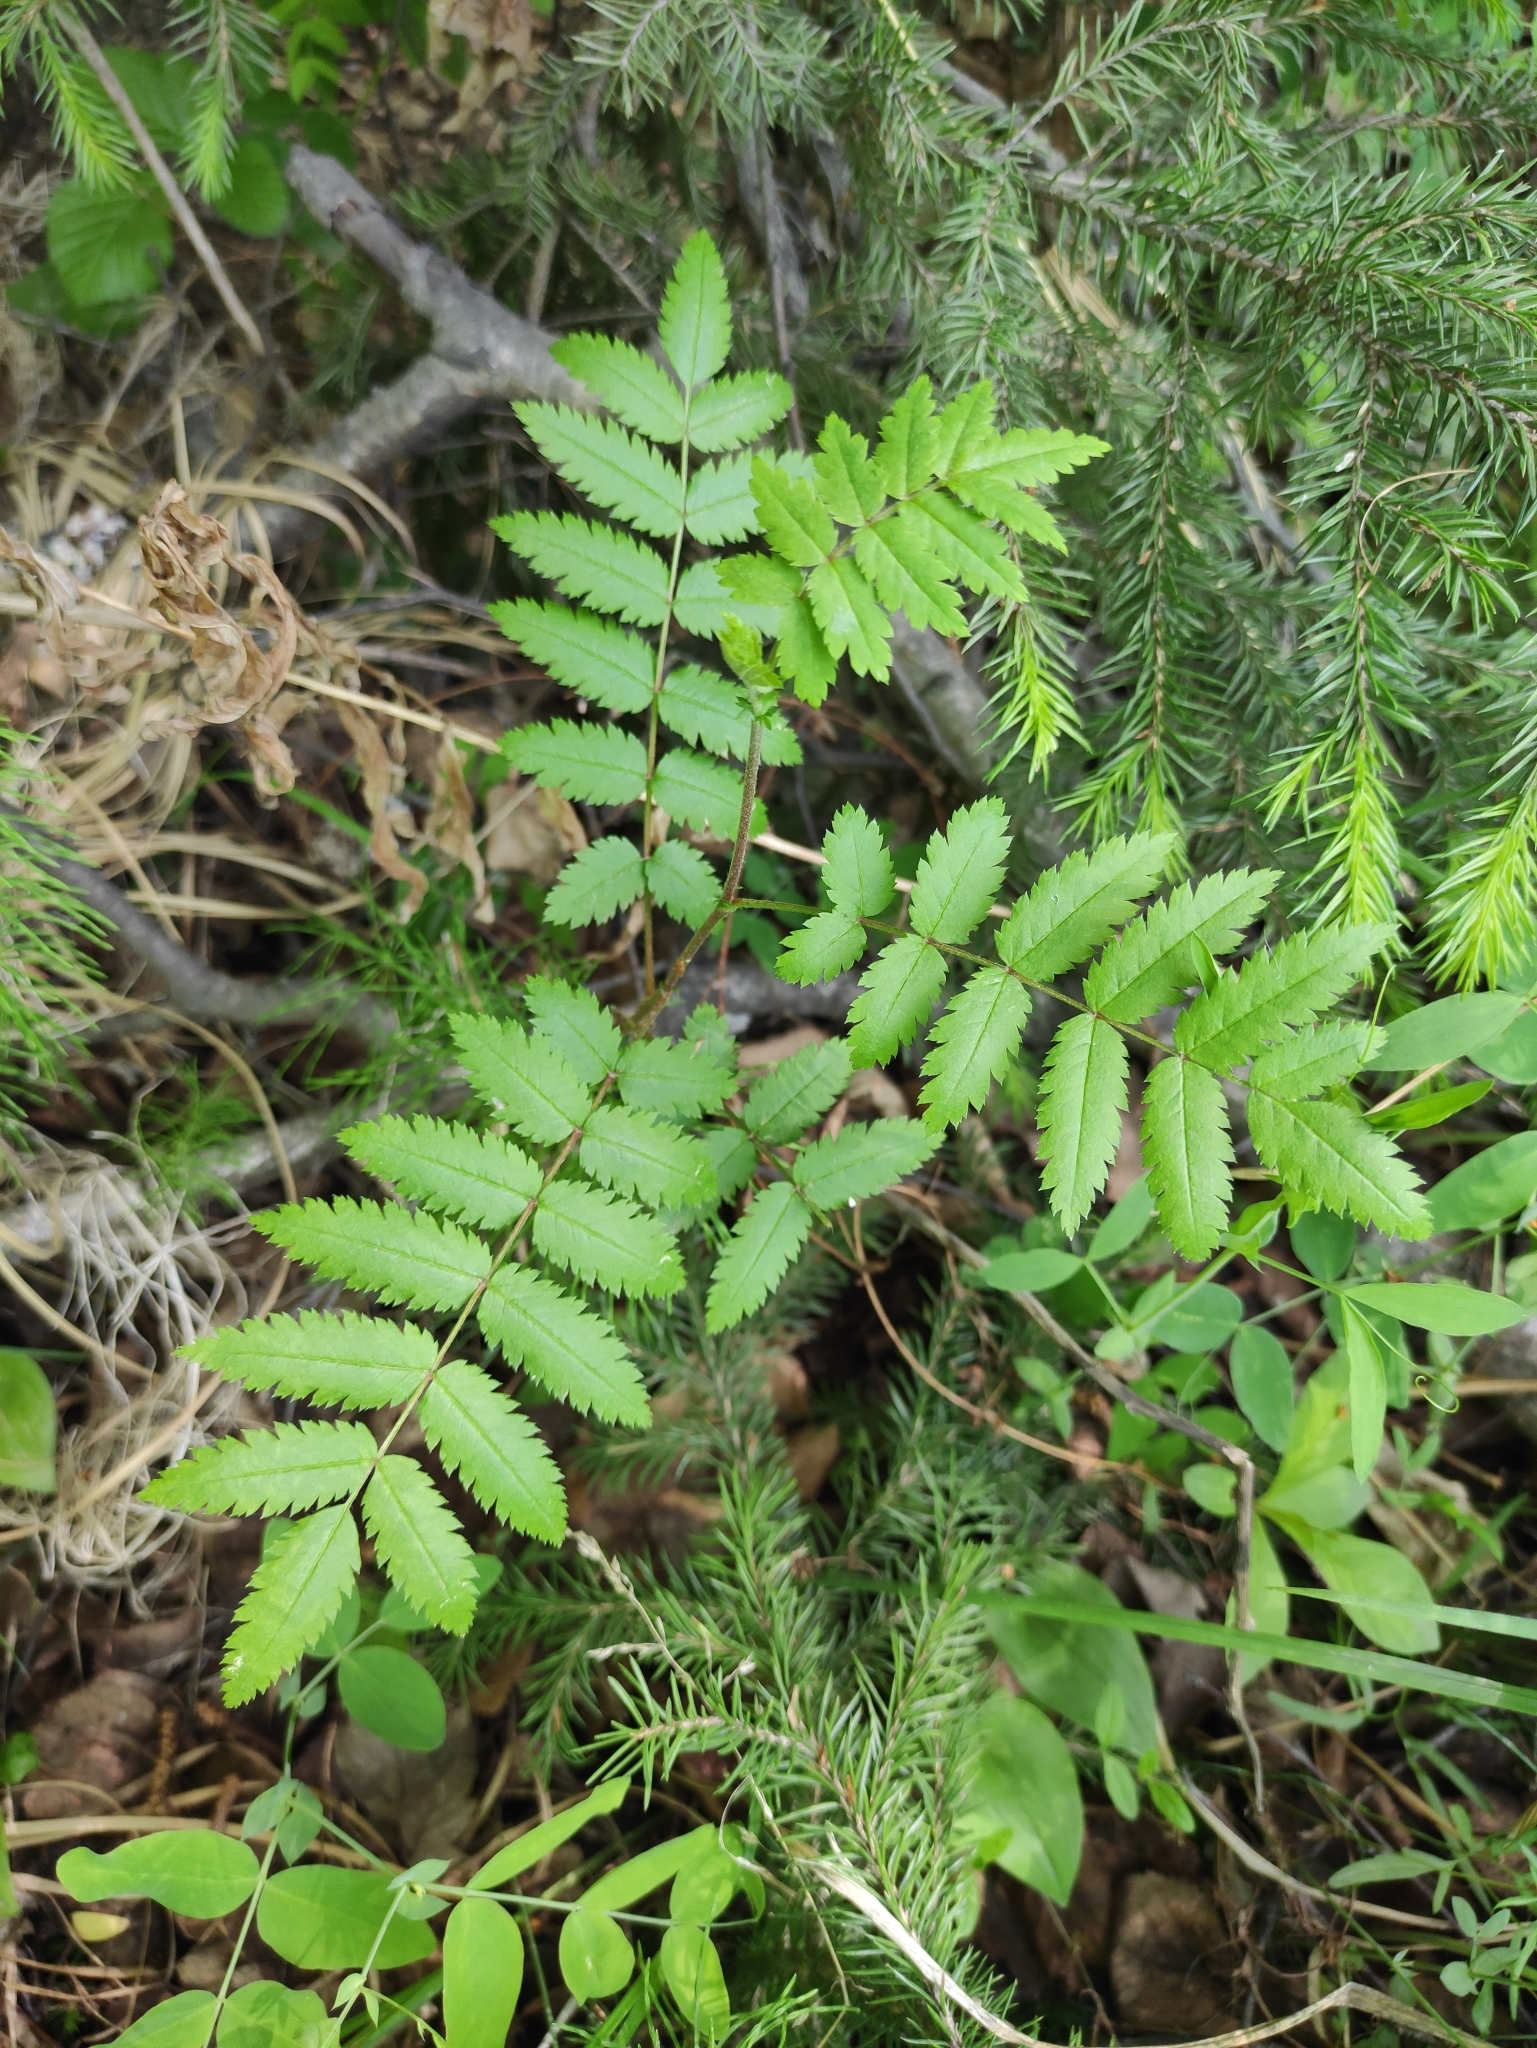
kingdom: Plantae
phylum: Tracheophyta
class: Magnoliopsida
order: Rosales
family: Rosaceae
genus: Sorbus
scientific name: Sorbus aucuparia
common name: Rowan
